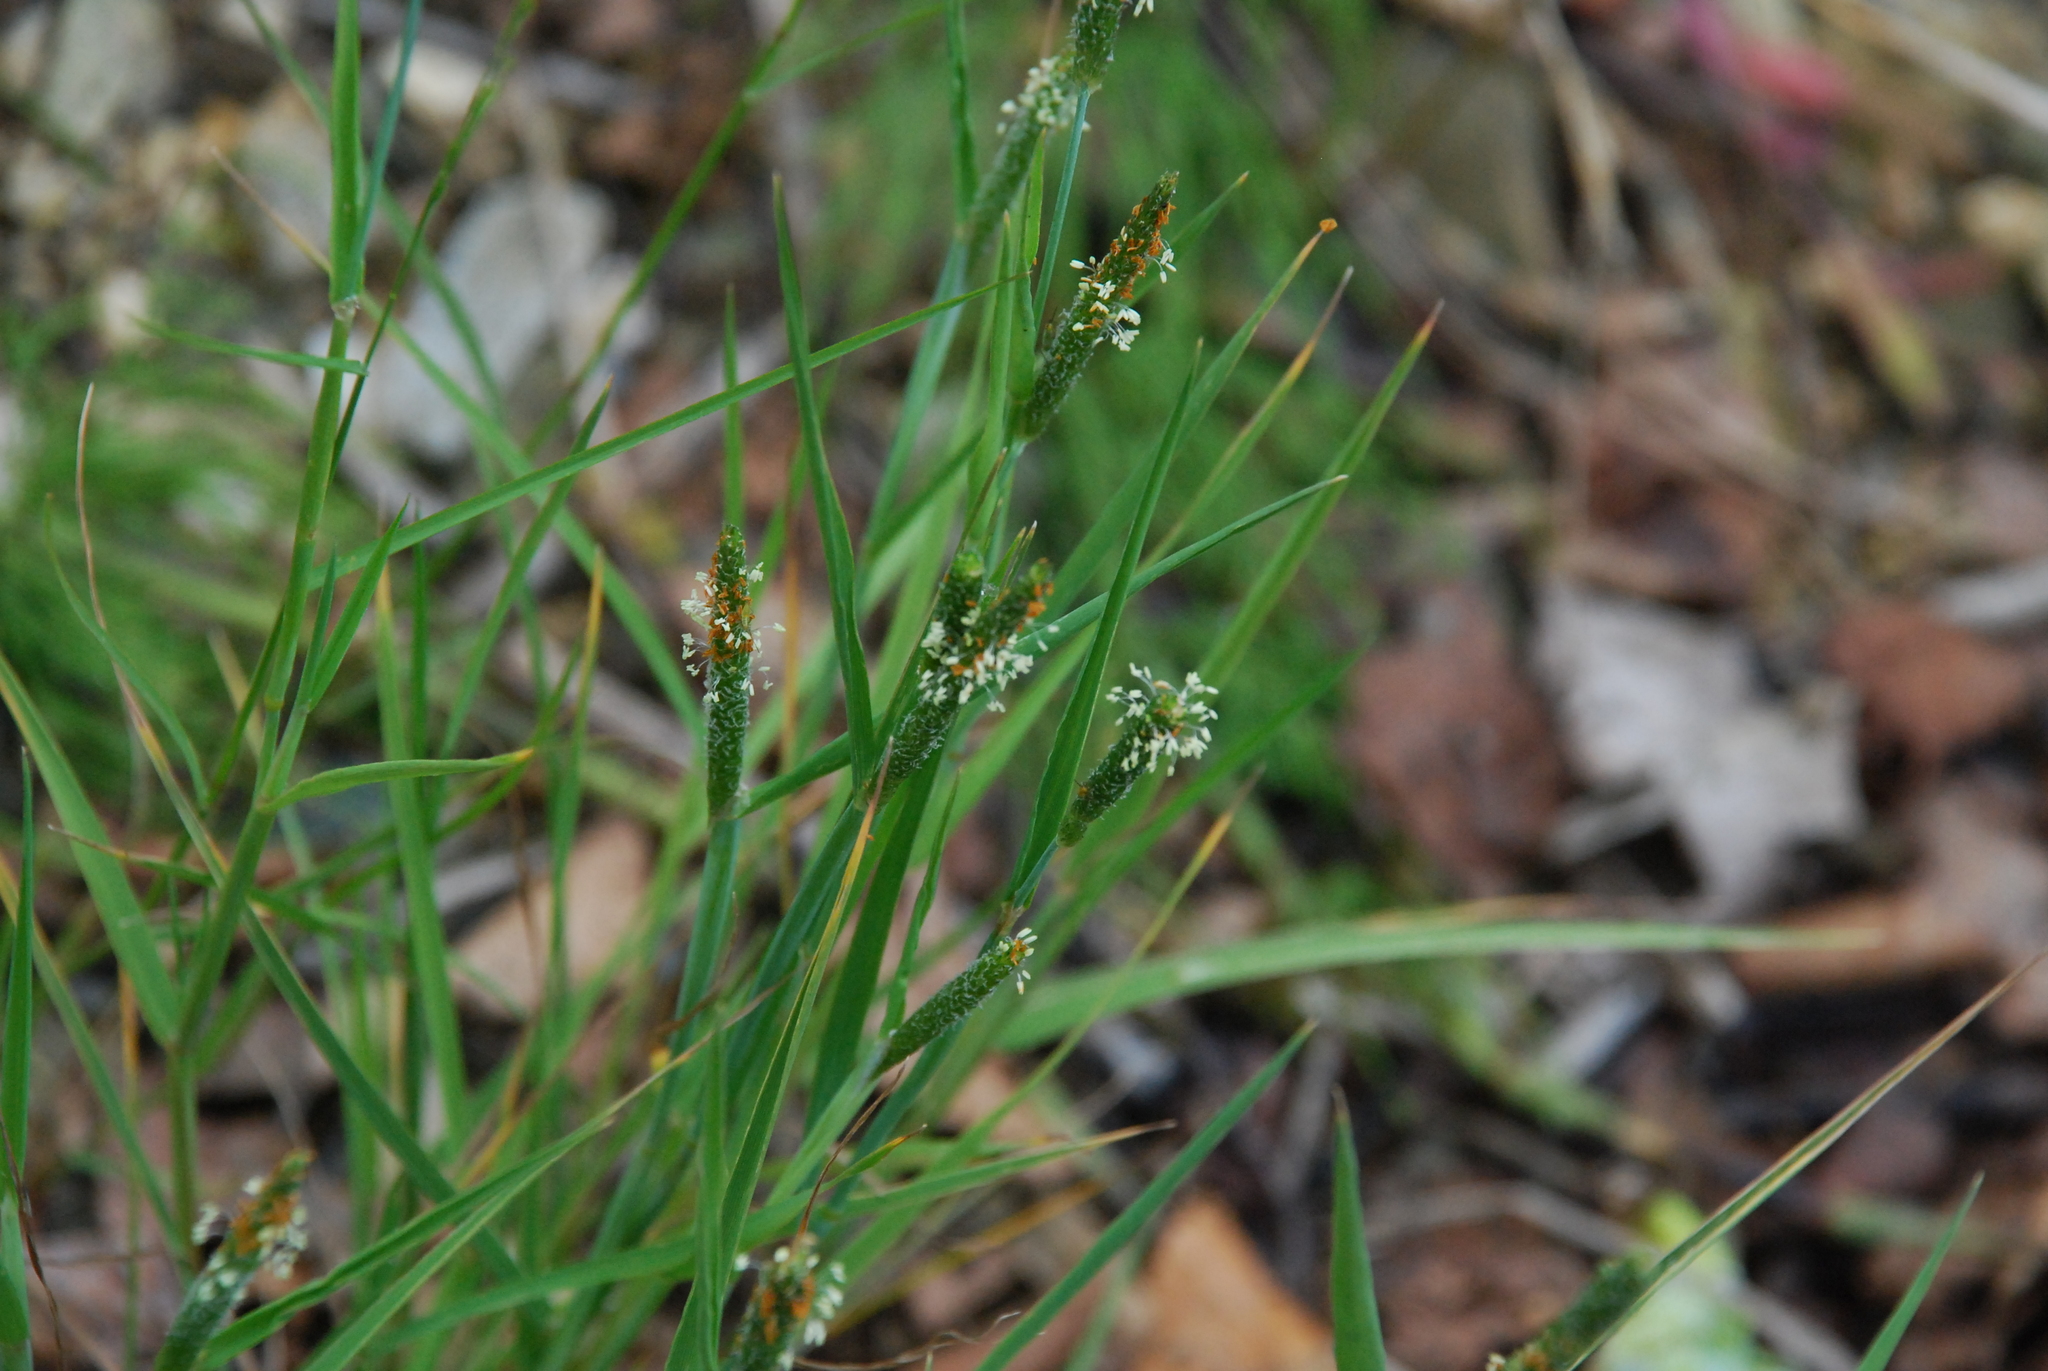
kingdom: Plantae
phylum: Tracheophyta
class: Liliopsida
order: Poales
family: Poaceae
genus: Alopecurus
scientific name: Alopecurus aequalis
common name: Orange foxtail
